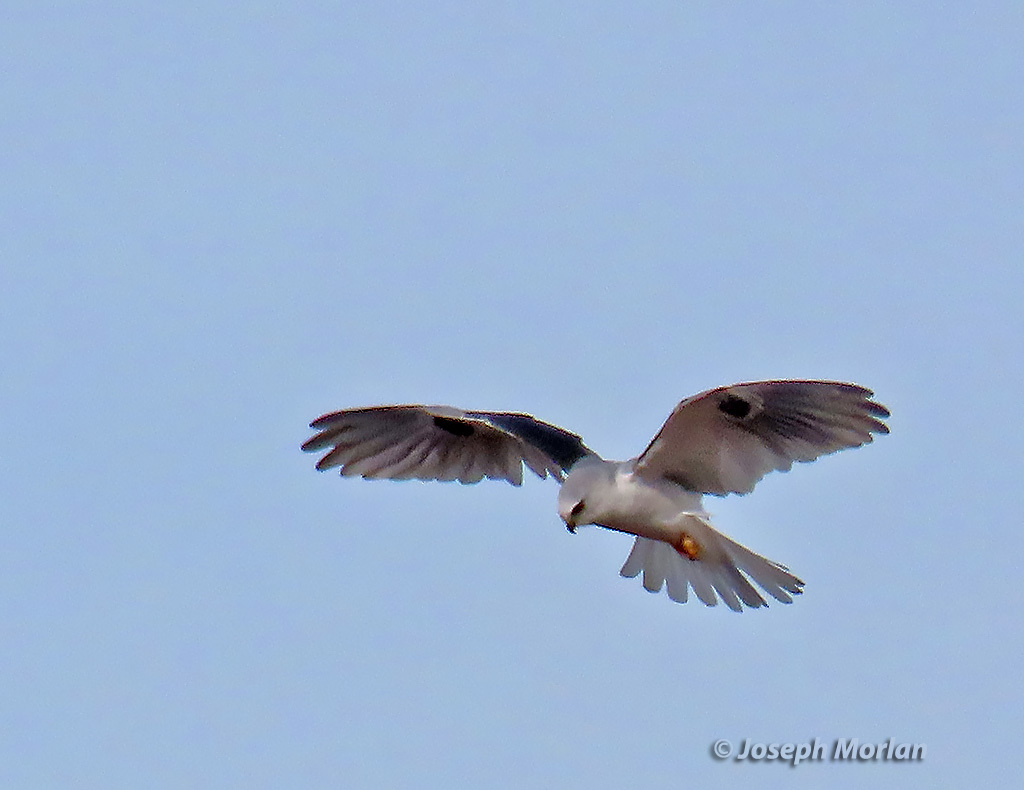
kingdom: Animalia
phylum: Chordata
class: Aves
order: Accipitriformes
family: Accipitridae
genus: Elanus
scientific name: Elanus leucurus
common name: White-tailed kite
